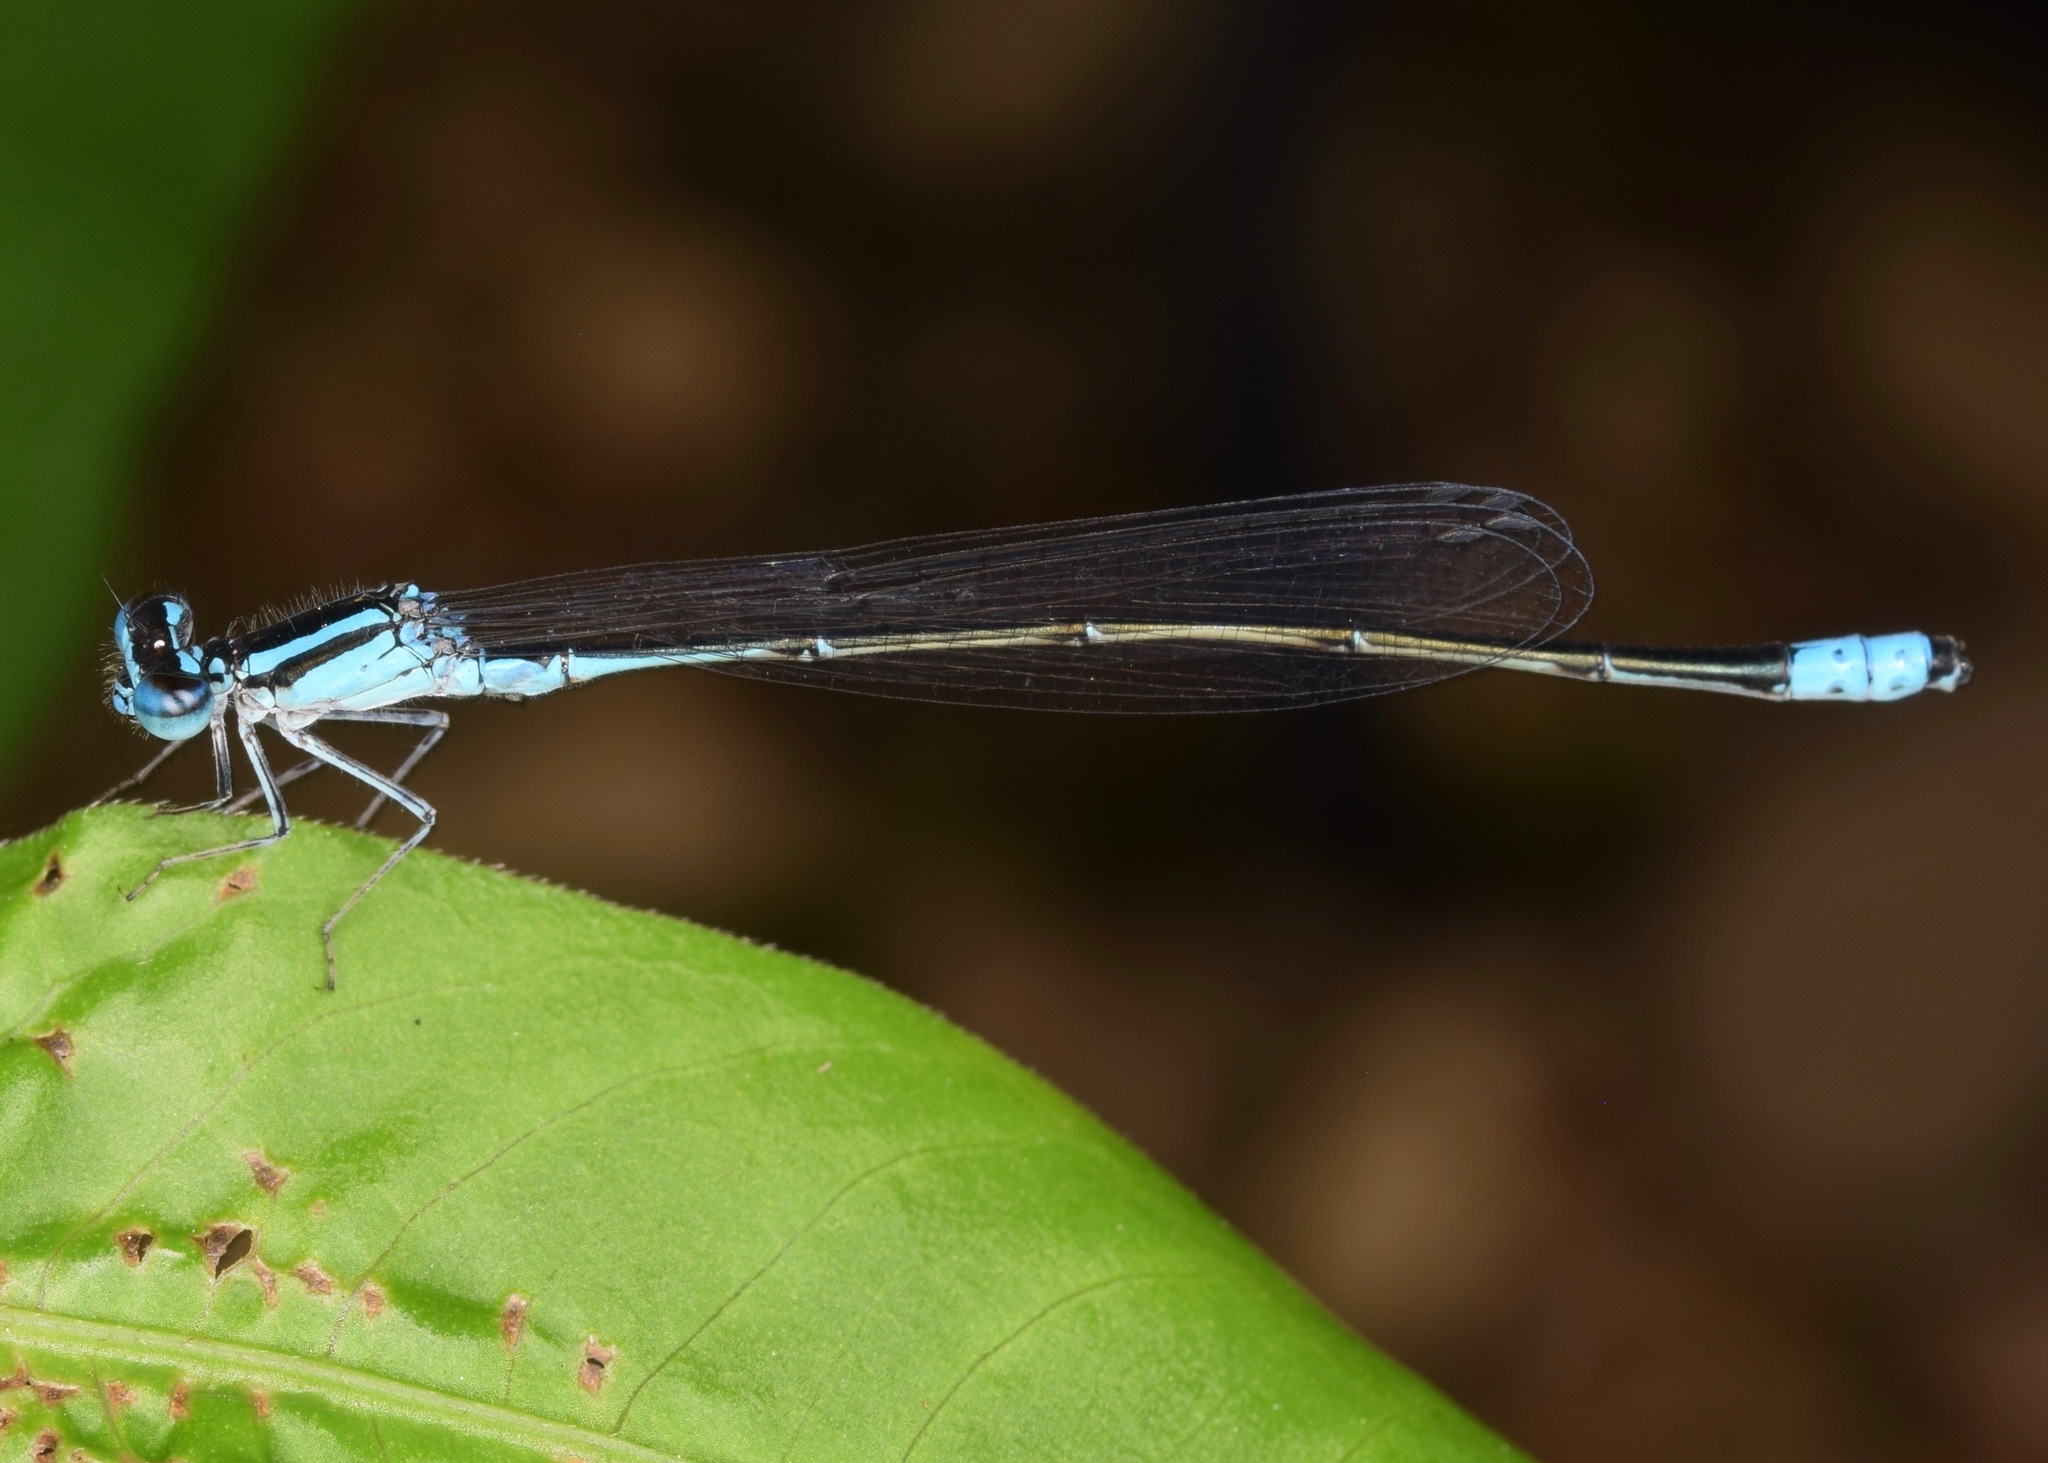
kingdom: Animalia
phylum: Arthropoda
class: Insecta
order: Odonata
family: Coenagrionidae
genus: Enallagma
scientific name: Enallagma divagans
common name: Turquoise bluet
